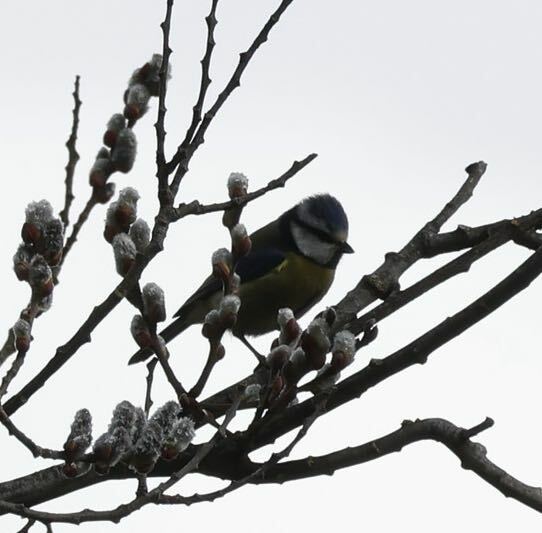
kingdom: Animalia
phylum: Chordata
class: Aves
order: Passeriformes
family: Paridae
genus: Cyanistes
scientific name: Cyanistes caeruleus
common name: Eurasian blue tit
